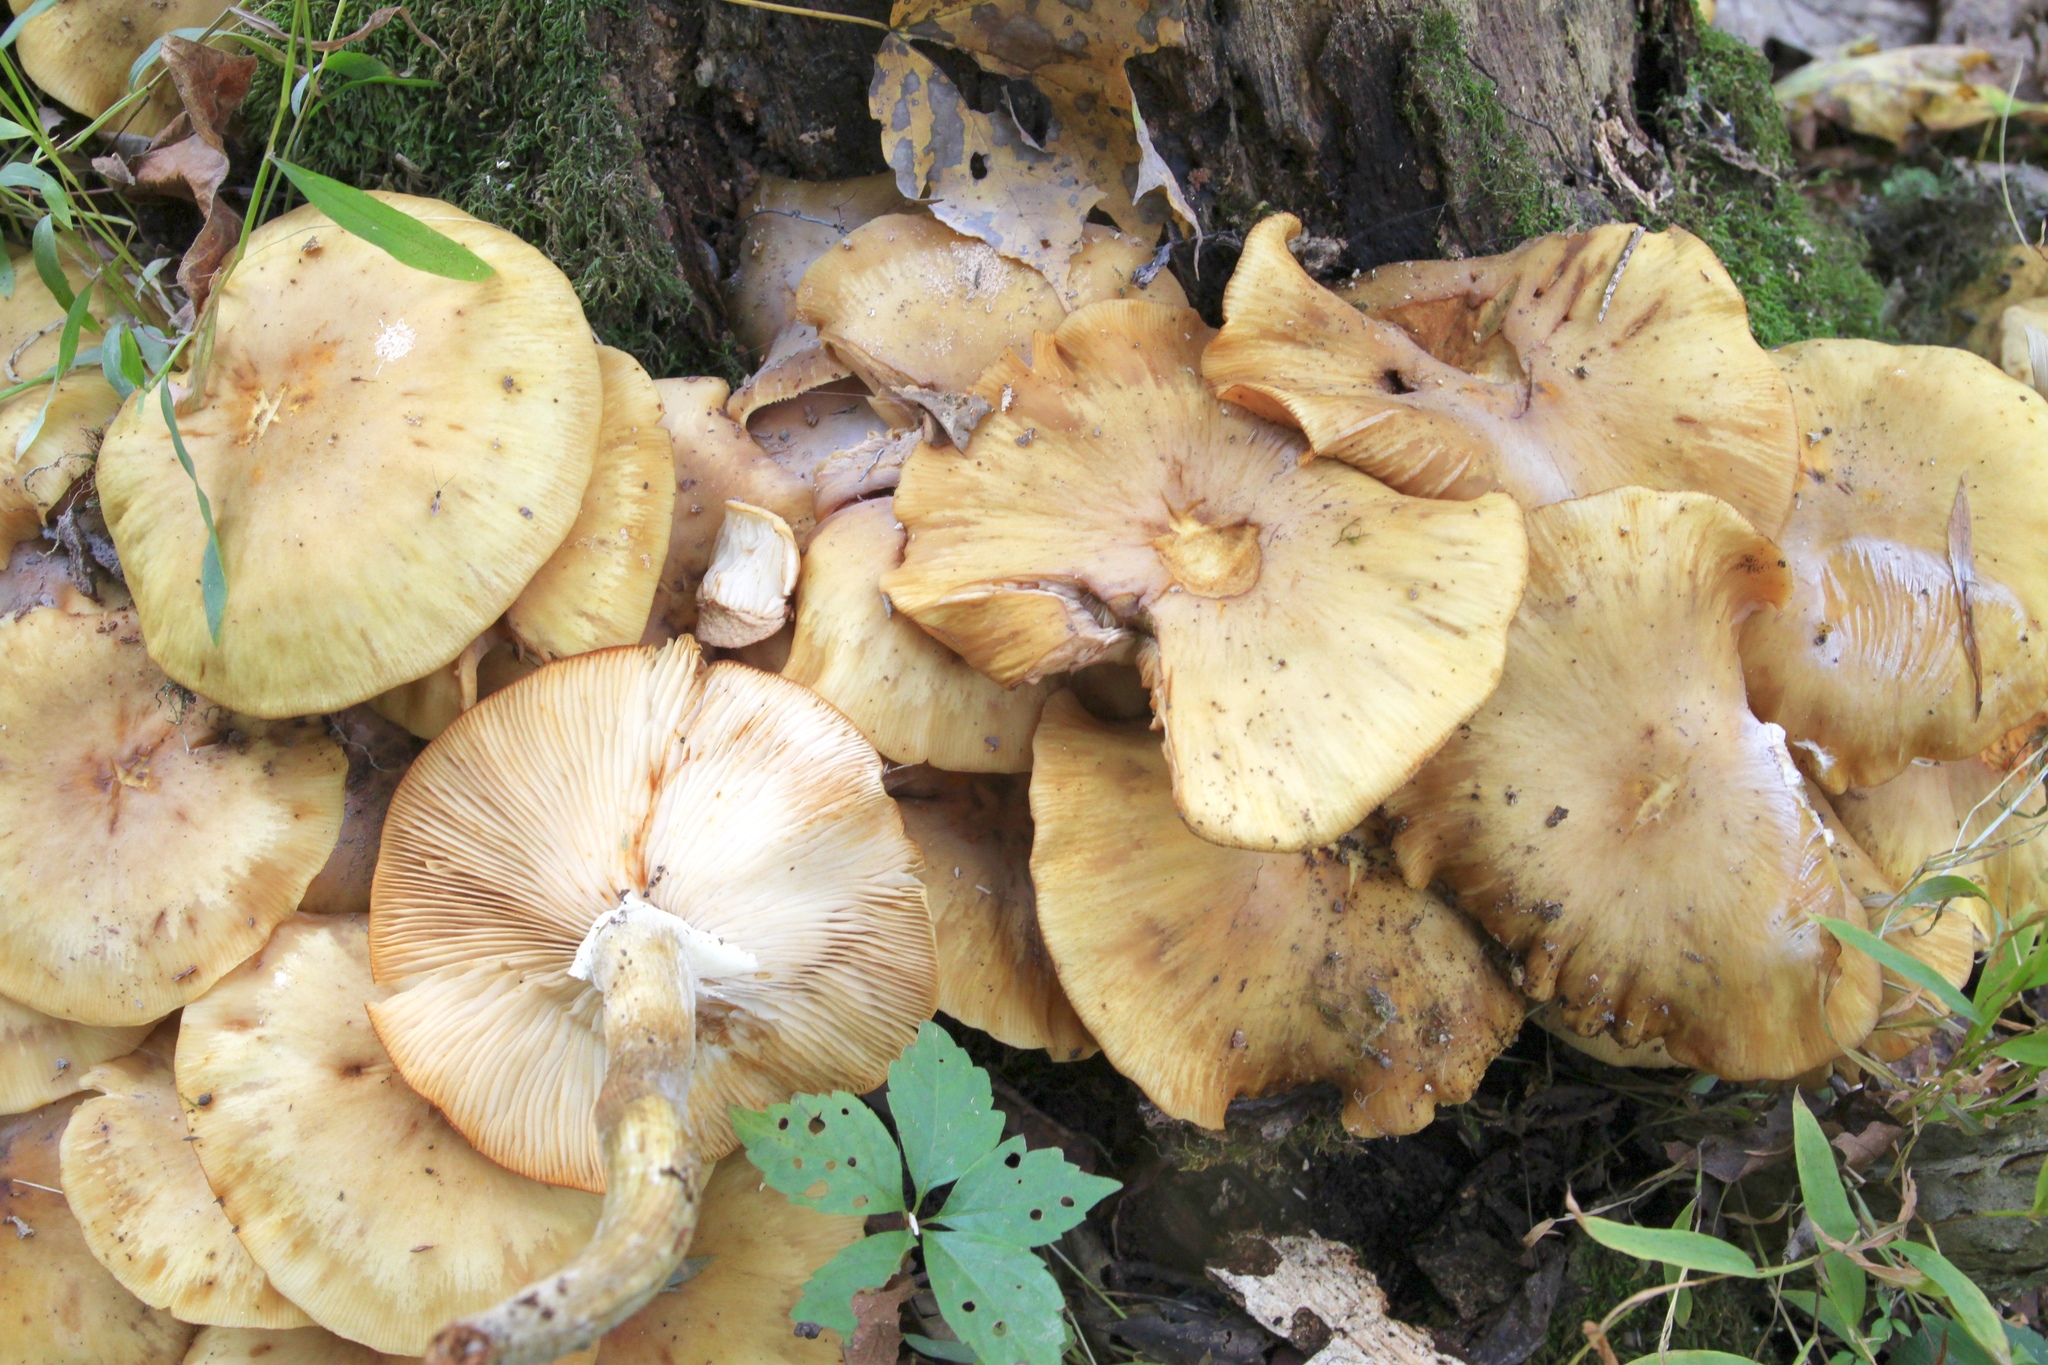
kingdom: Fungi
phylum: Basidiomycota
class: Agaricomycetes
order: Agaricales
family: Physalacriaceae
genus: Armillaria
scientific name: Armillaria mellea
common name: Honey fungus
